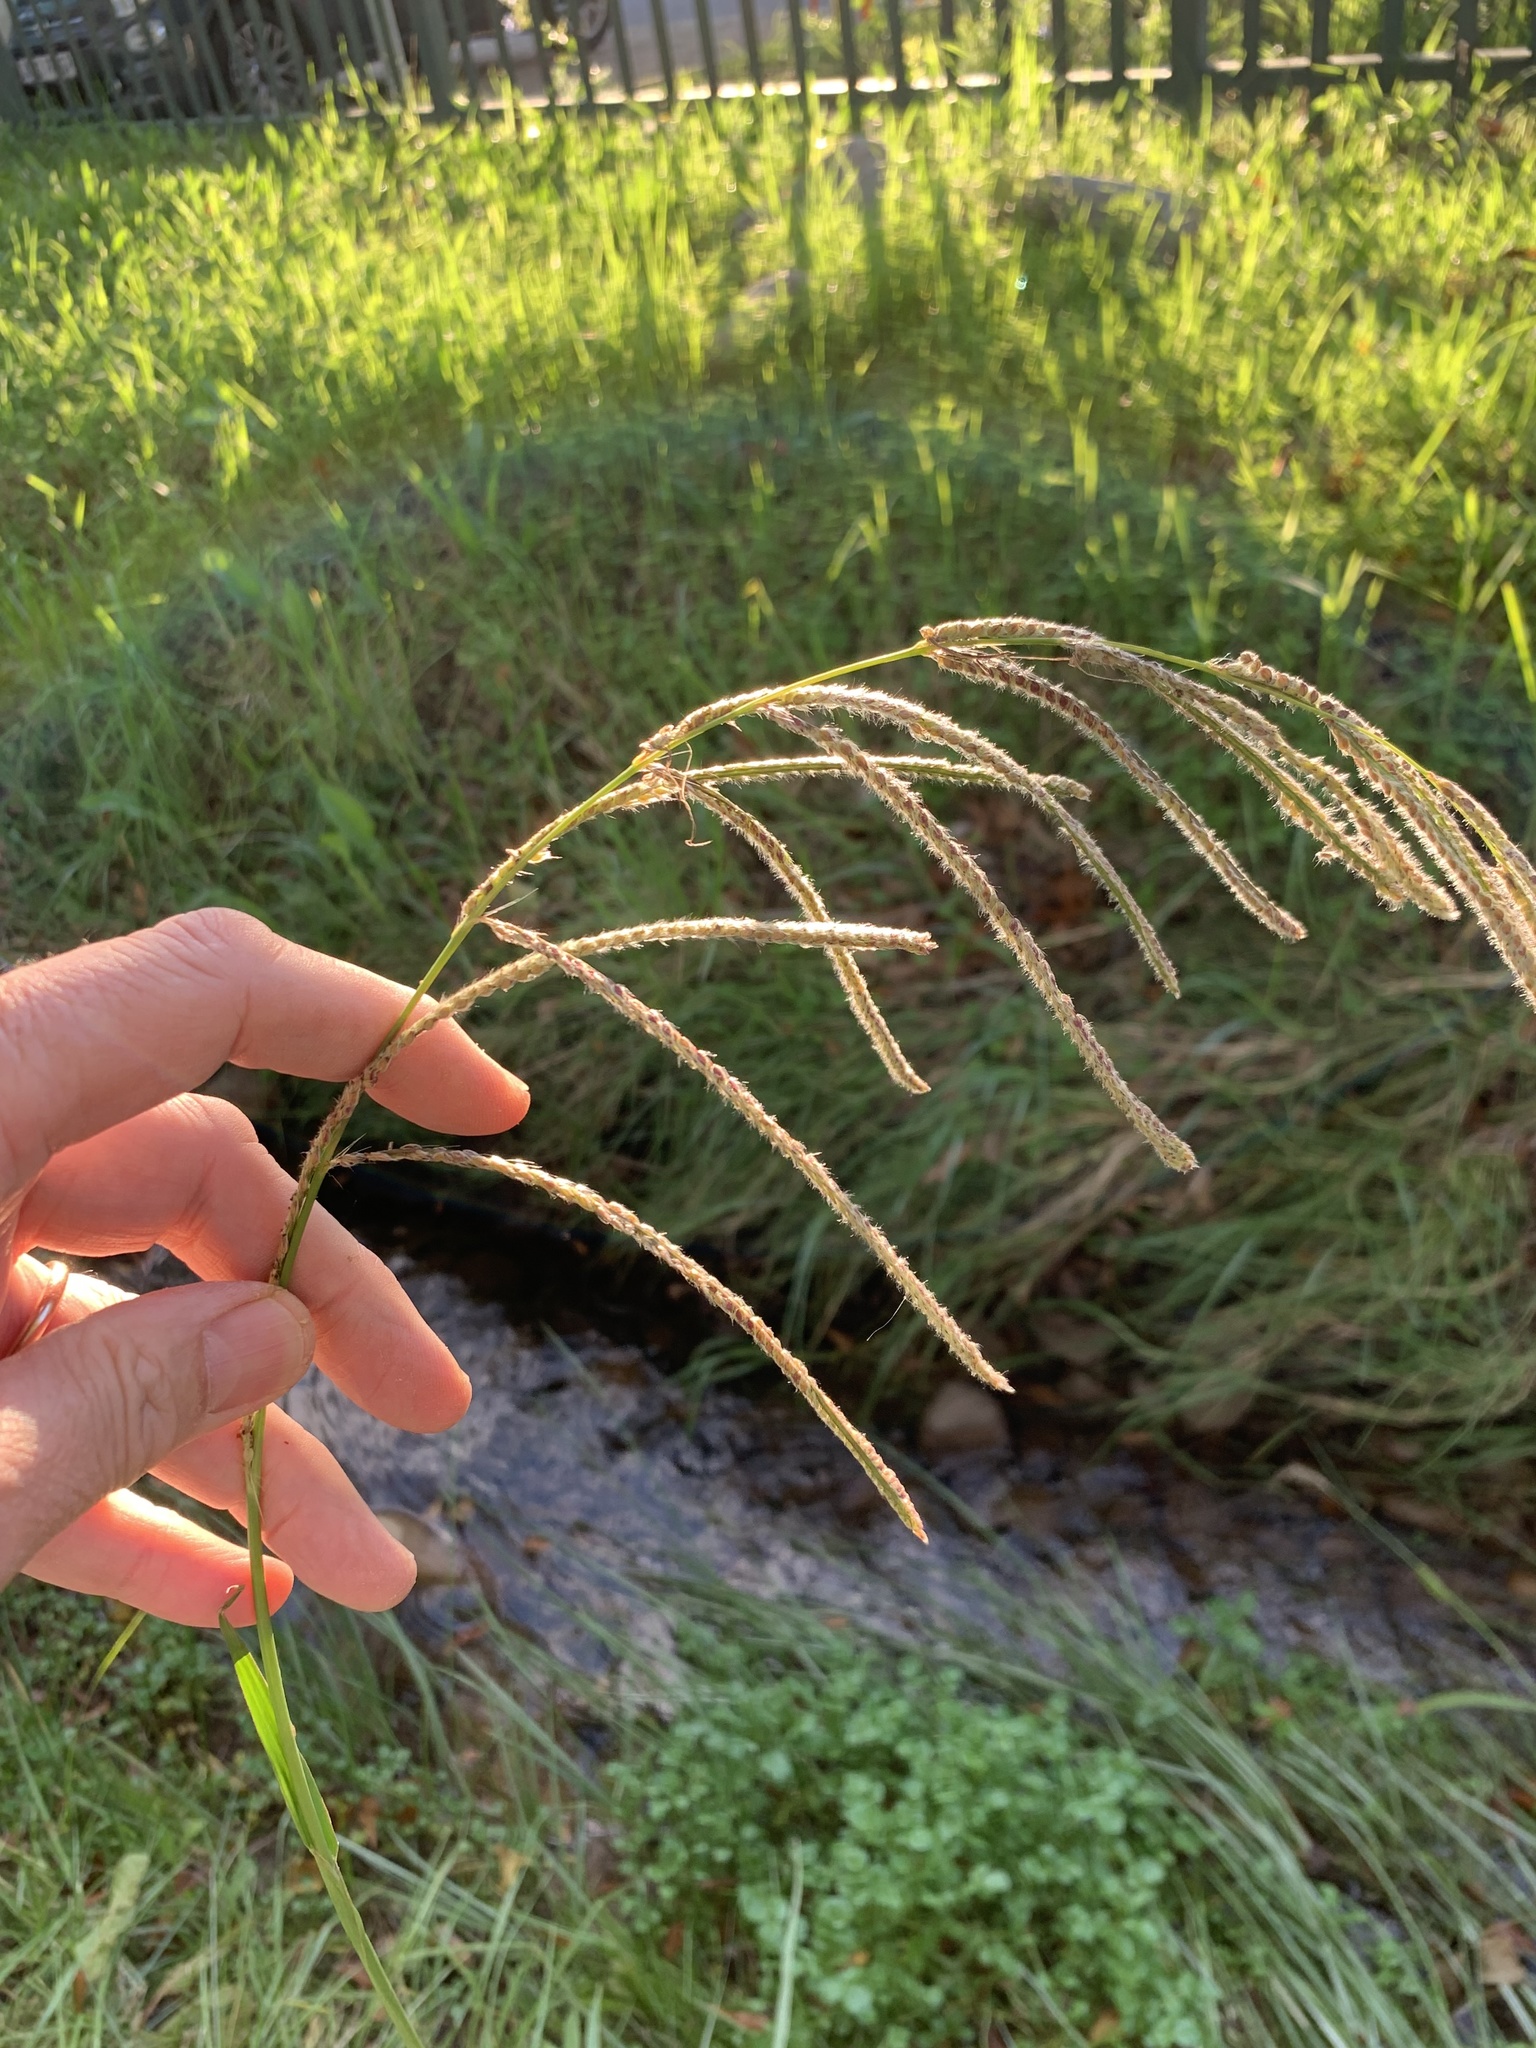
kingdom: Plantae
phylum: Tracheophyta
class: Liliopsida
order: Poales
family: Poaceae
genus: Paspalum
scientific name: Paspalum urvillei
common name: Vasey's grass
